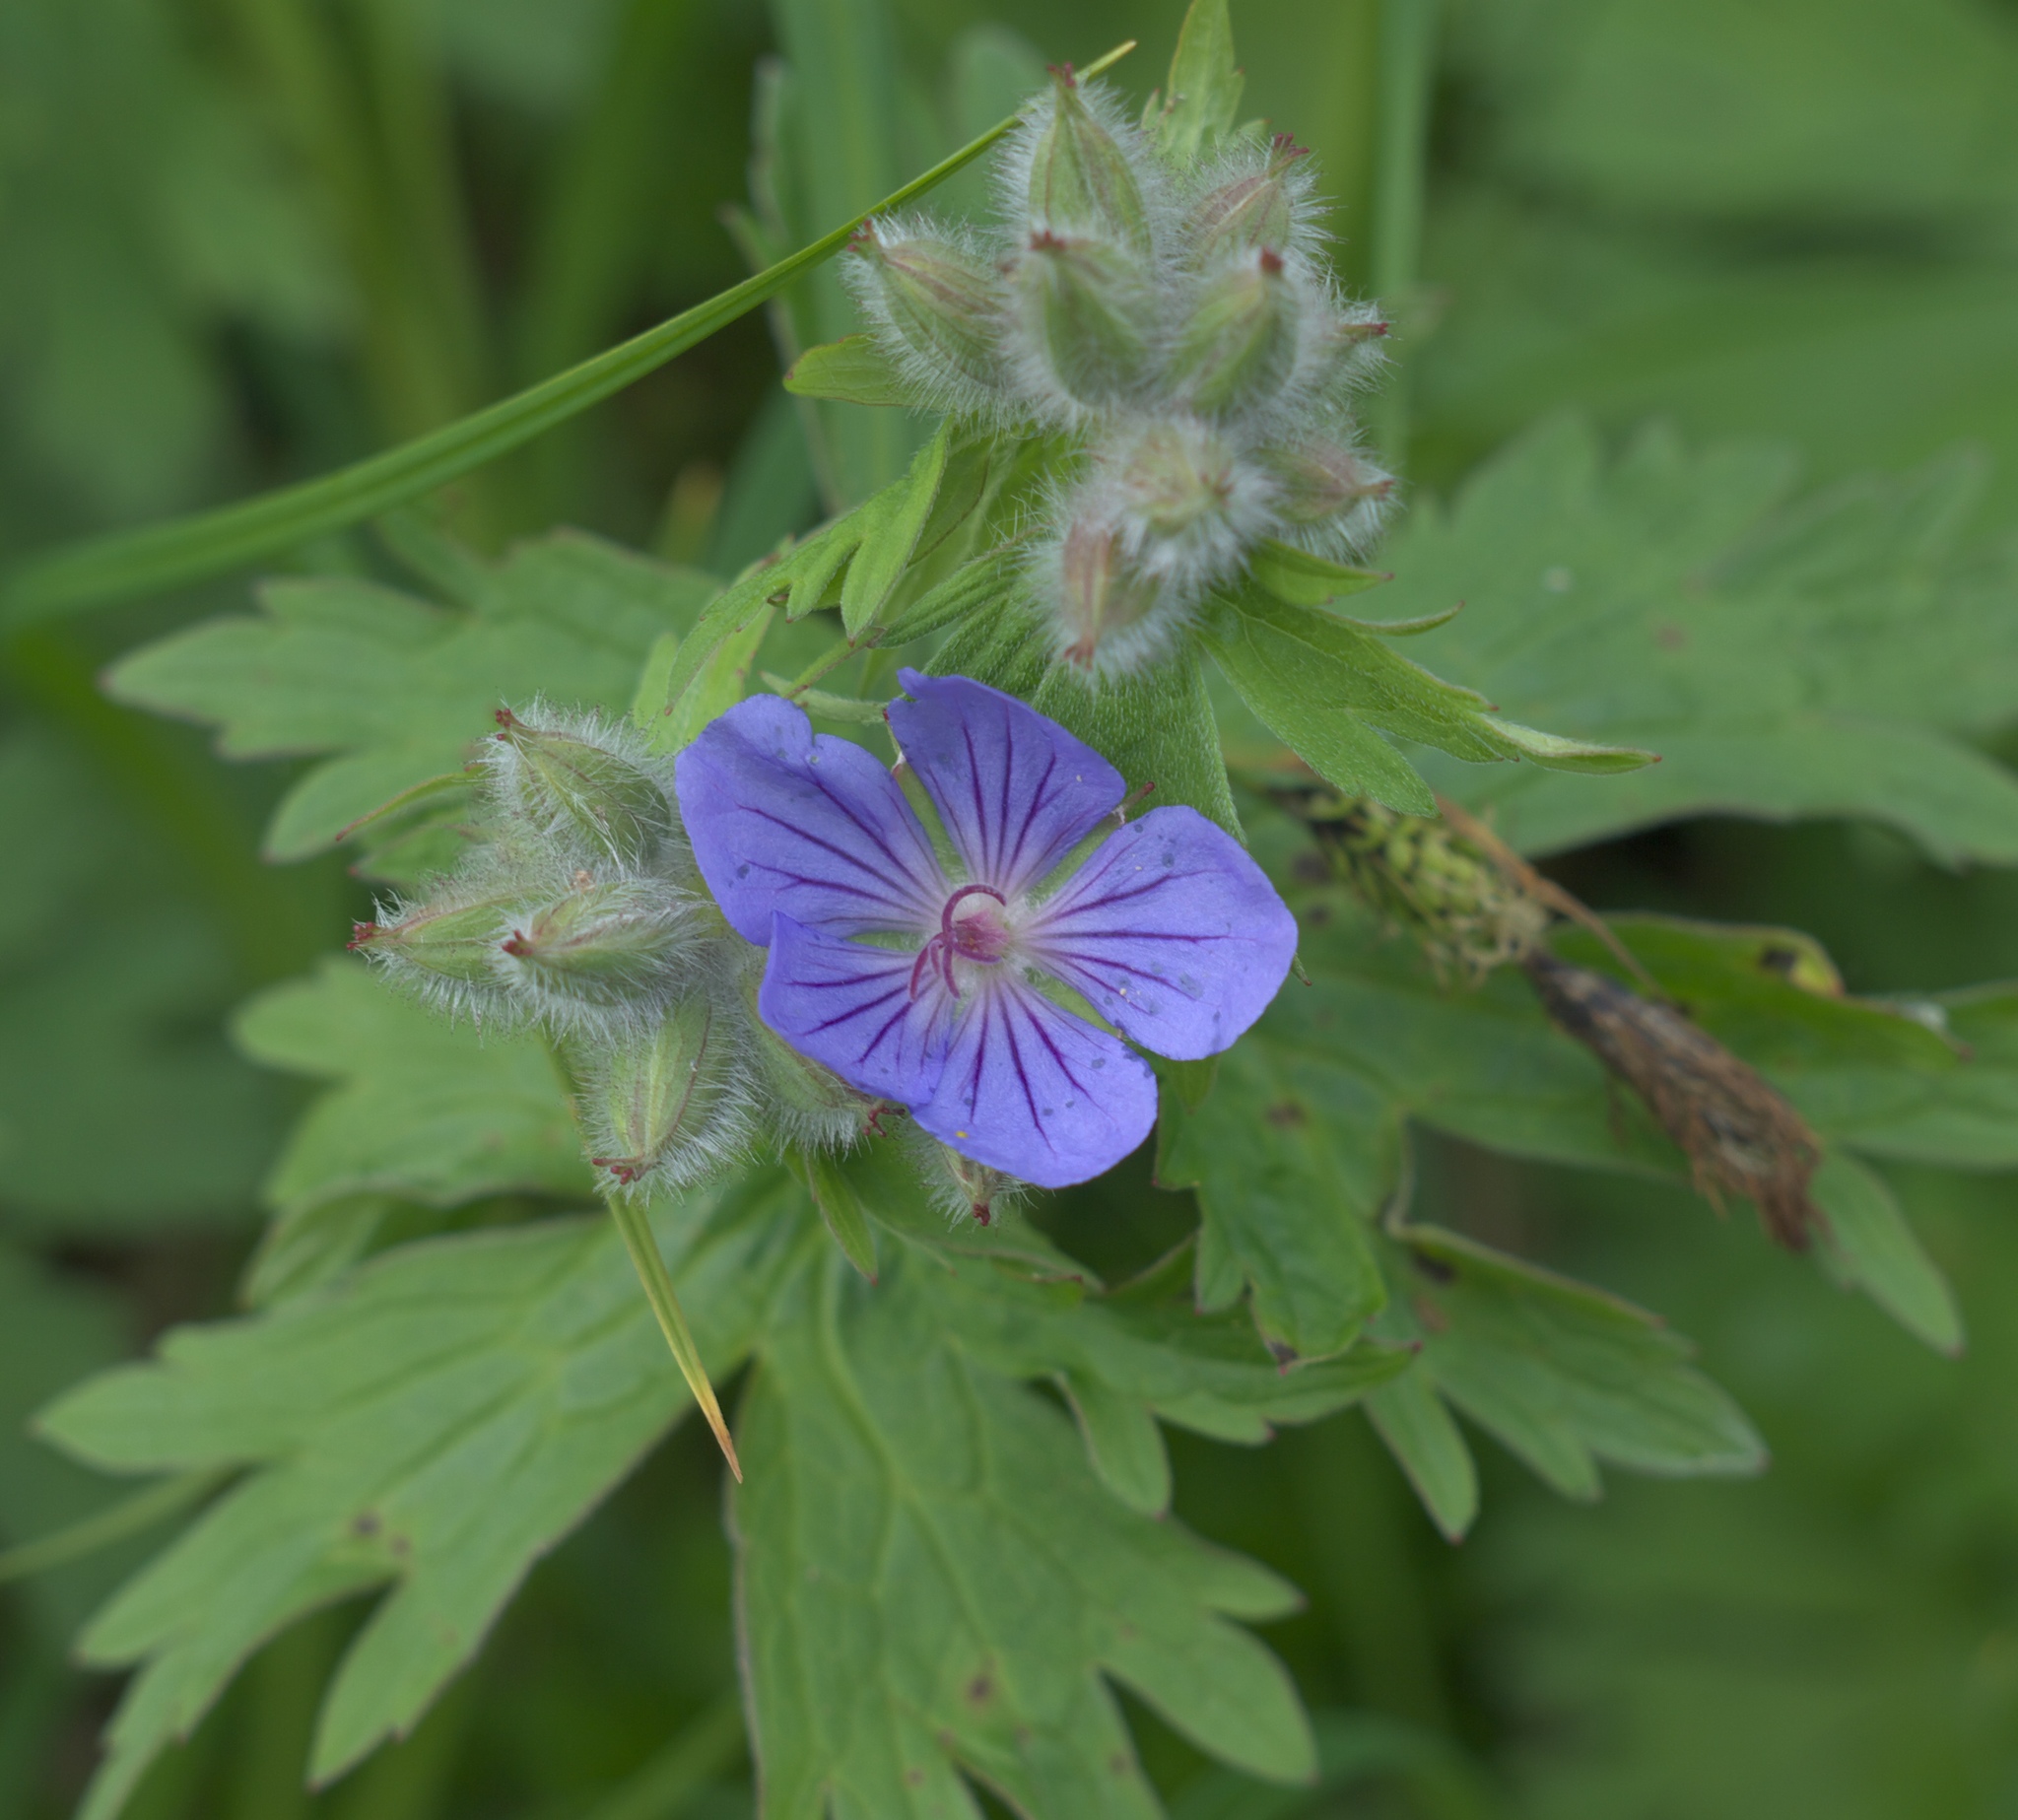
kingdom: Plantae
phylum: Tracheophyta
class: Magnoliopsida
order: Geraniales
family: Geraniaceae
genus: Geranium
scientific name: Geranium erianthum
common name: Northern crane's-bill
